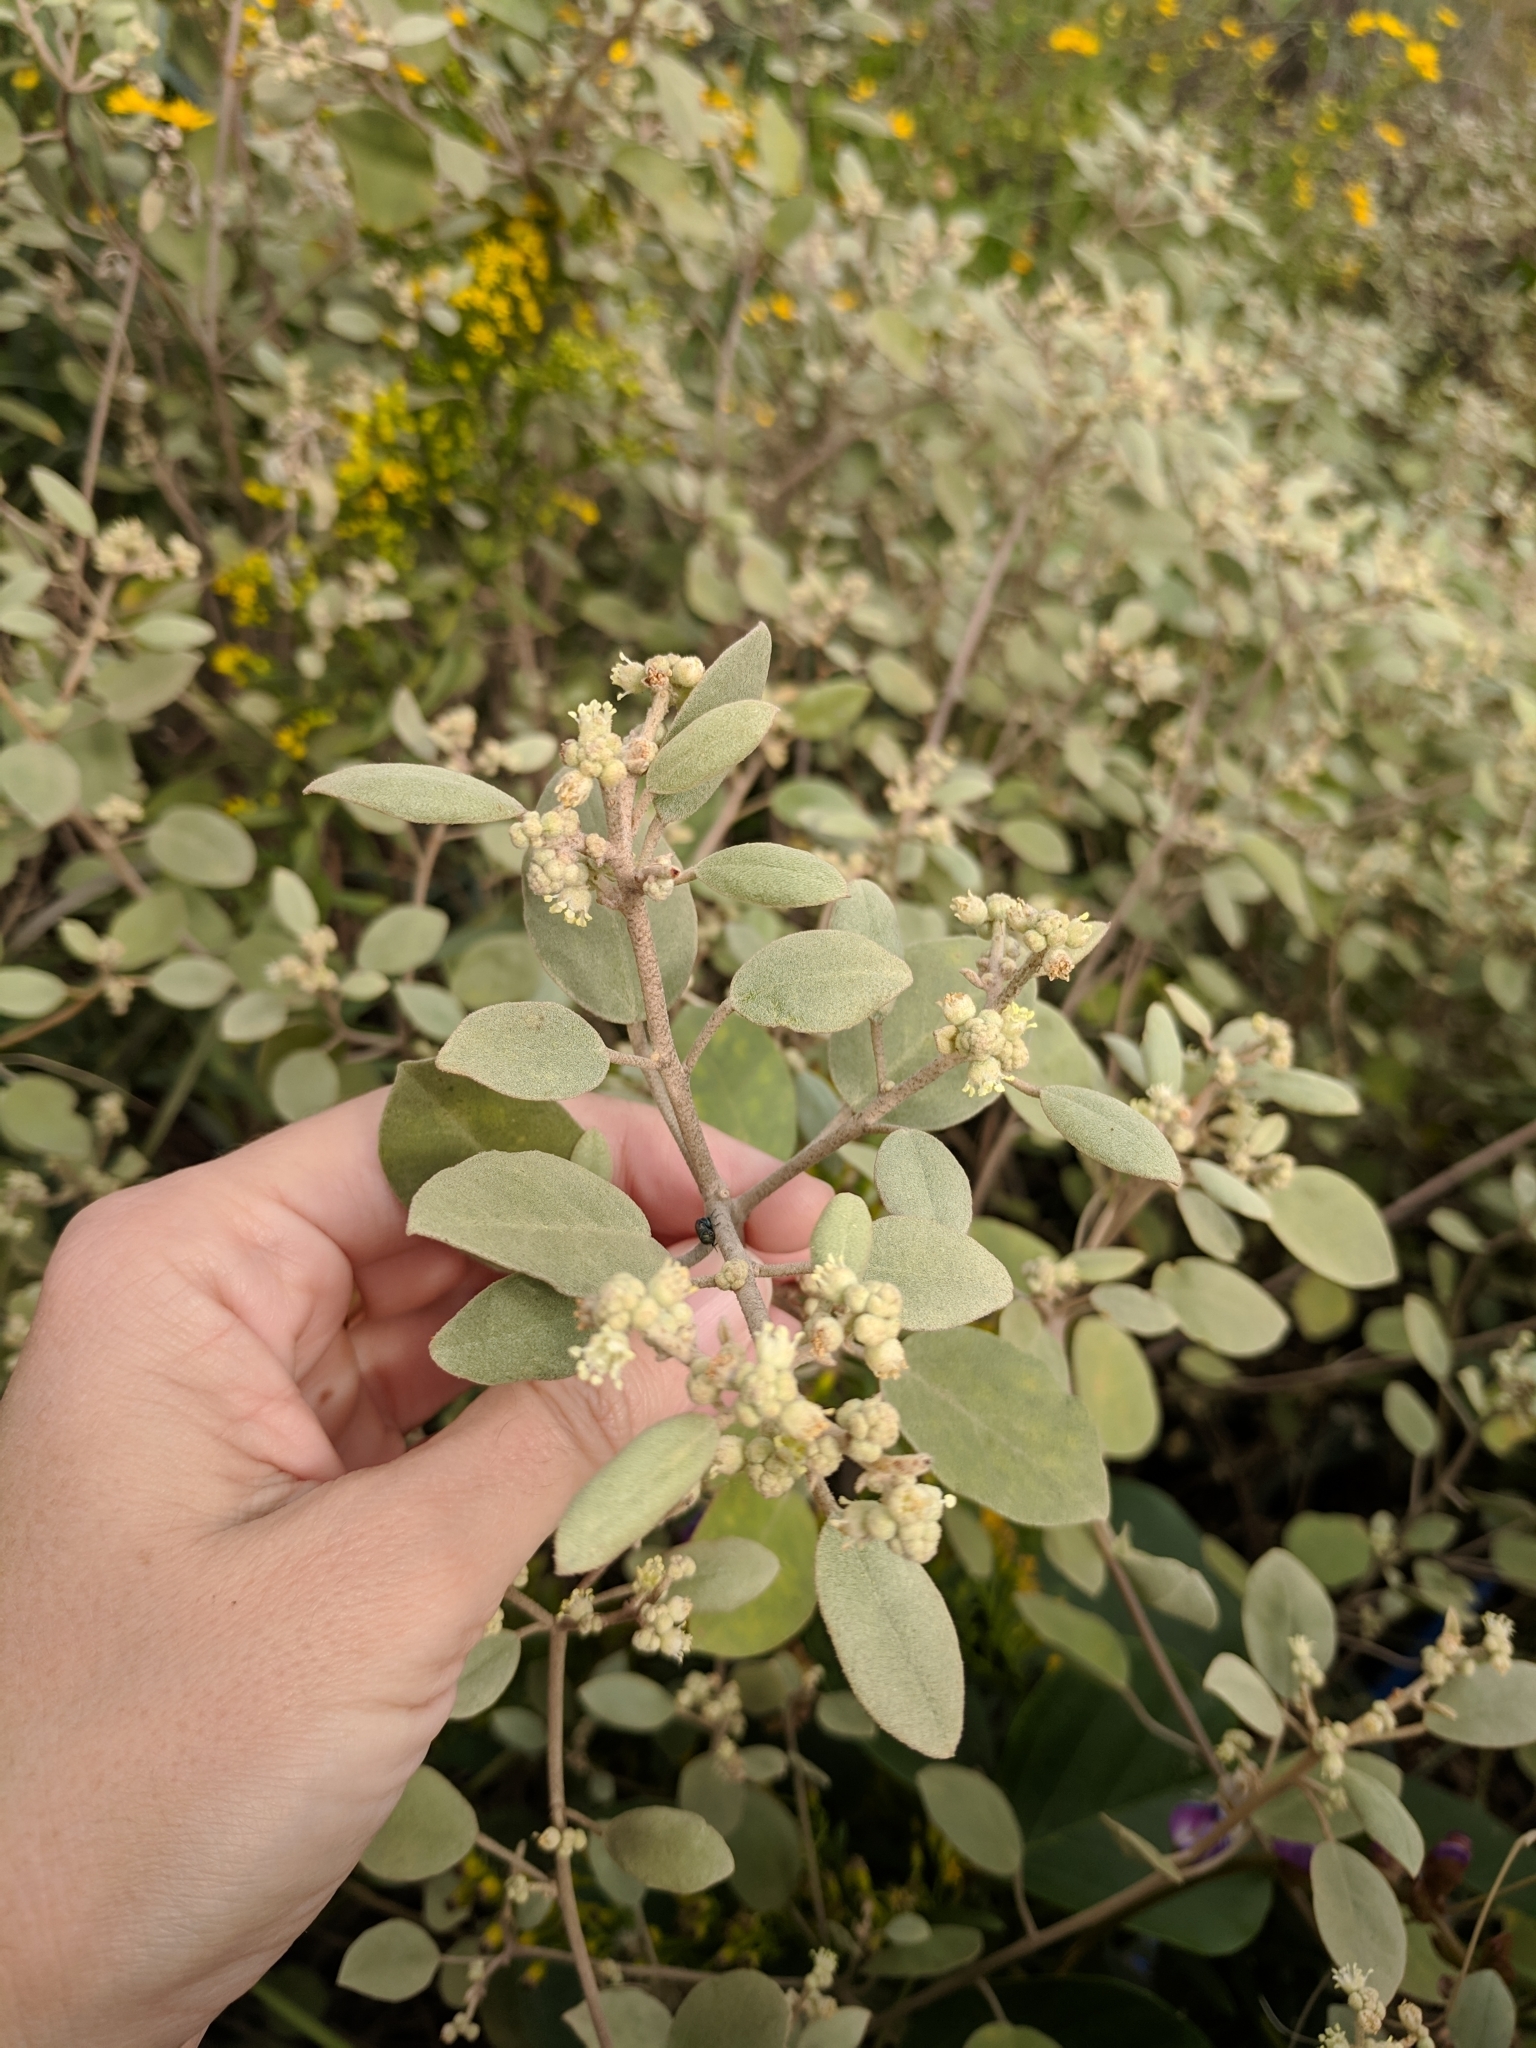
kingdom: Plantae
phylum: Tracheophyta
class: Magnoliopsida
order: Malpighiales
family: Euphorbiaceae
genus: Croton
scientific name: Croton punctatus
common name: Beach-tea
